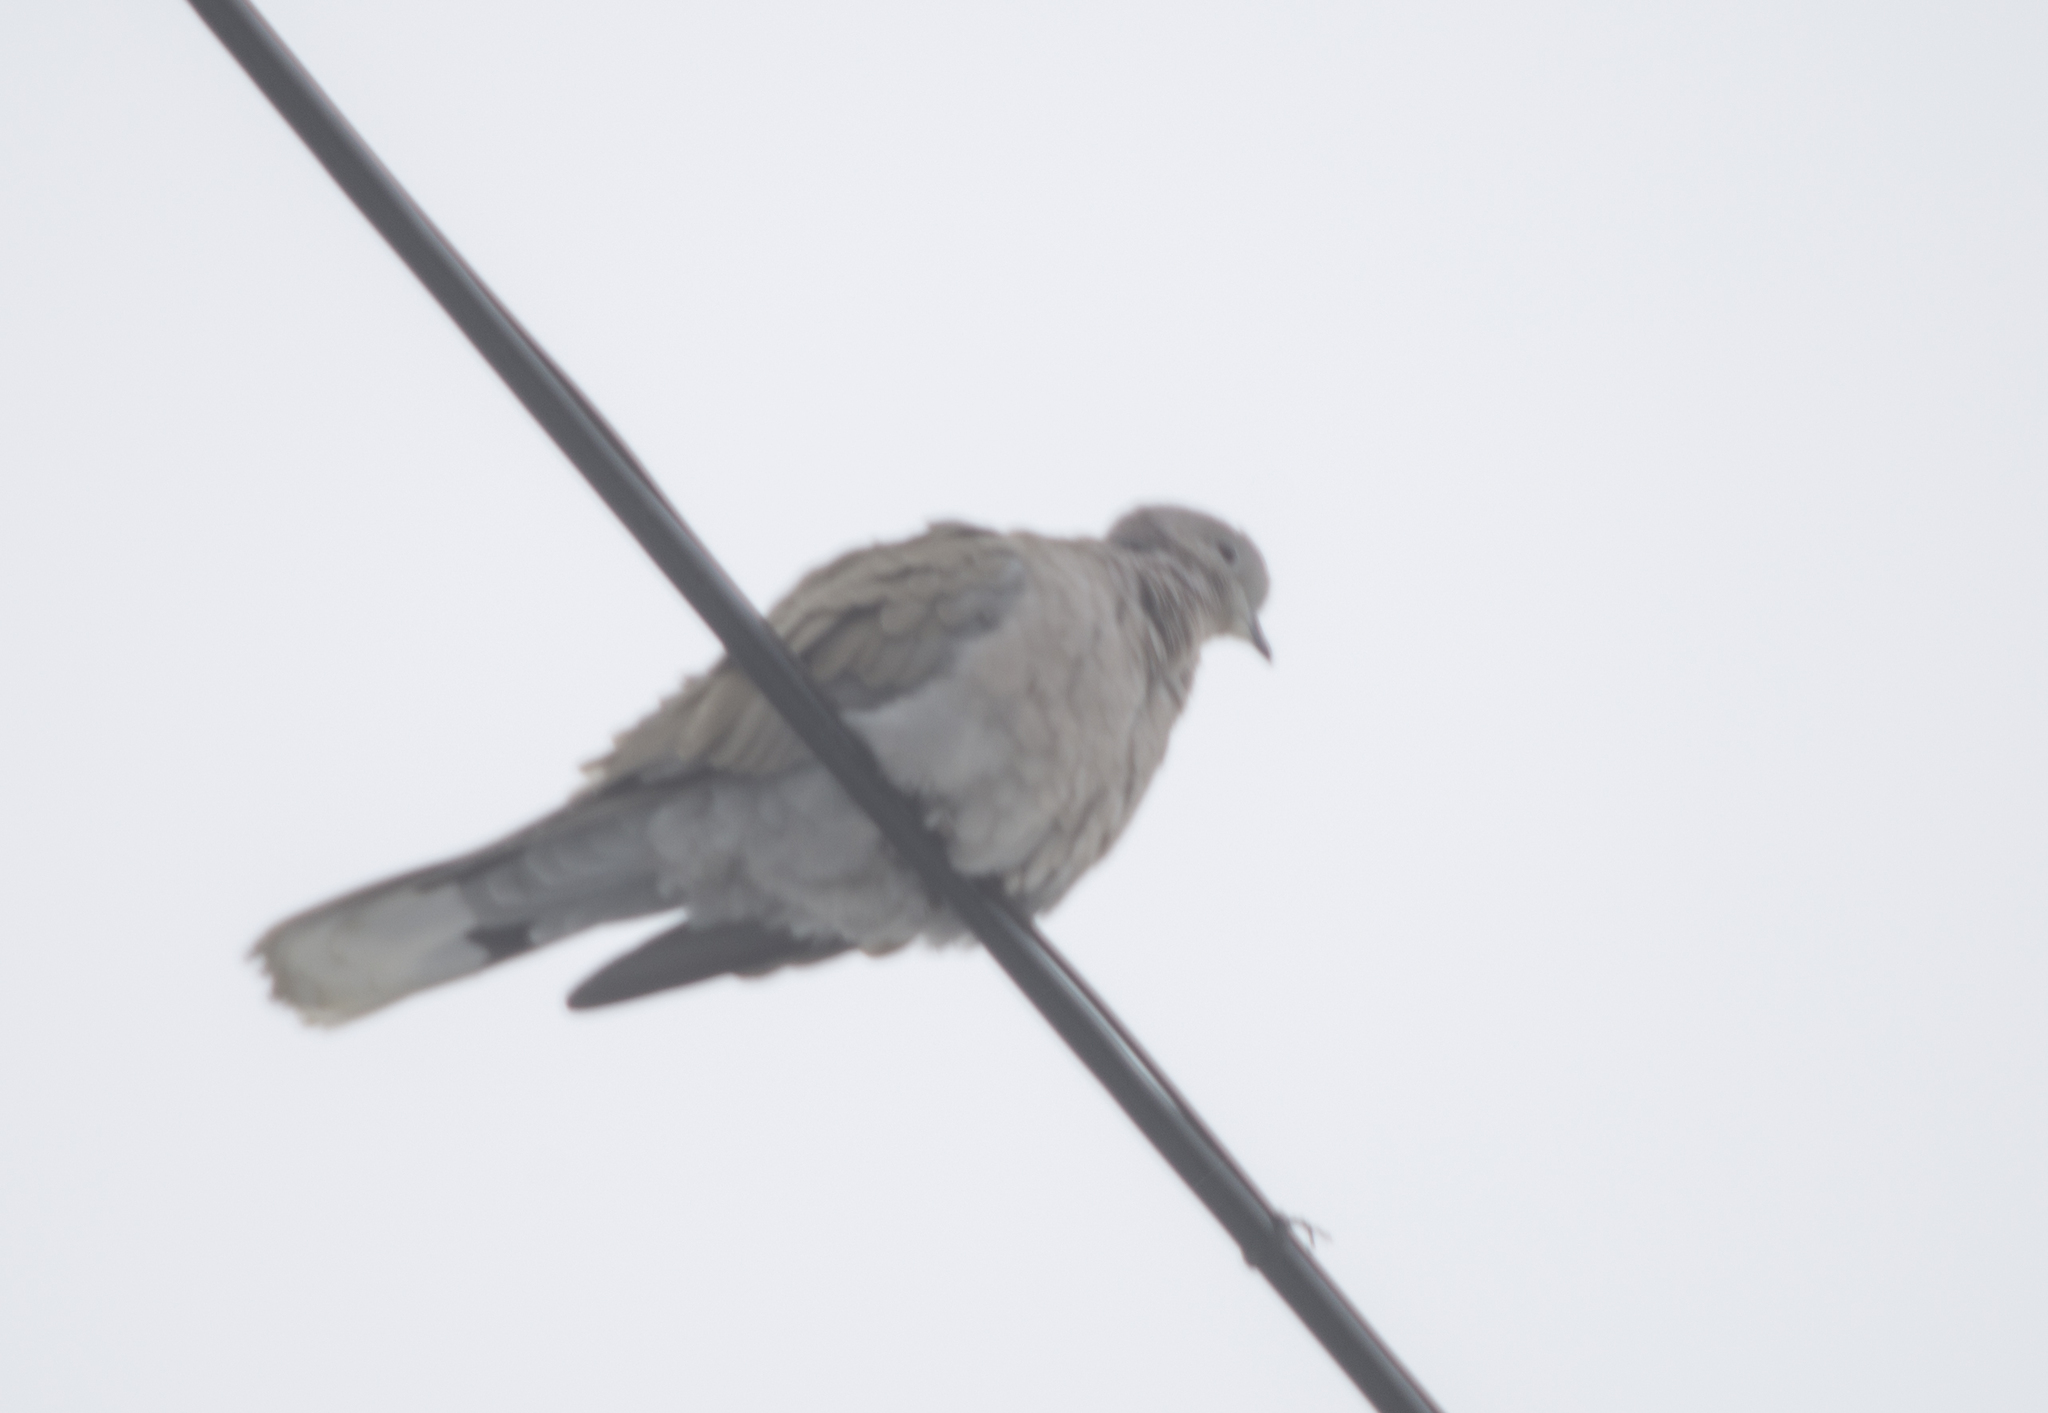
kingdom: Animalia
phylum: Chordata
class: Aves
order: Columbiformes
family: Columbidae
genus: Streptopelia
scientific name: Streptopelia decaocto
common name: Eurasian collared dove
